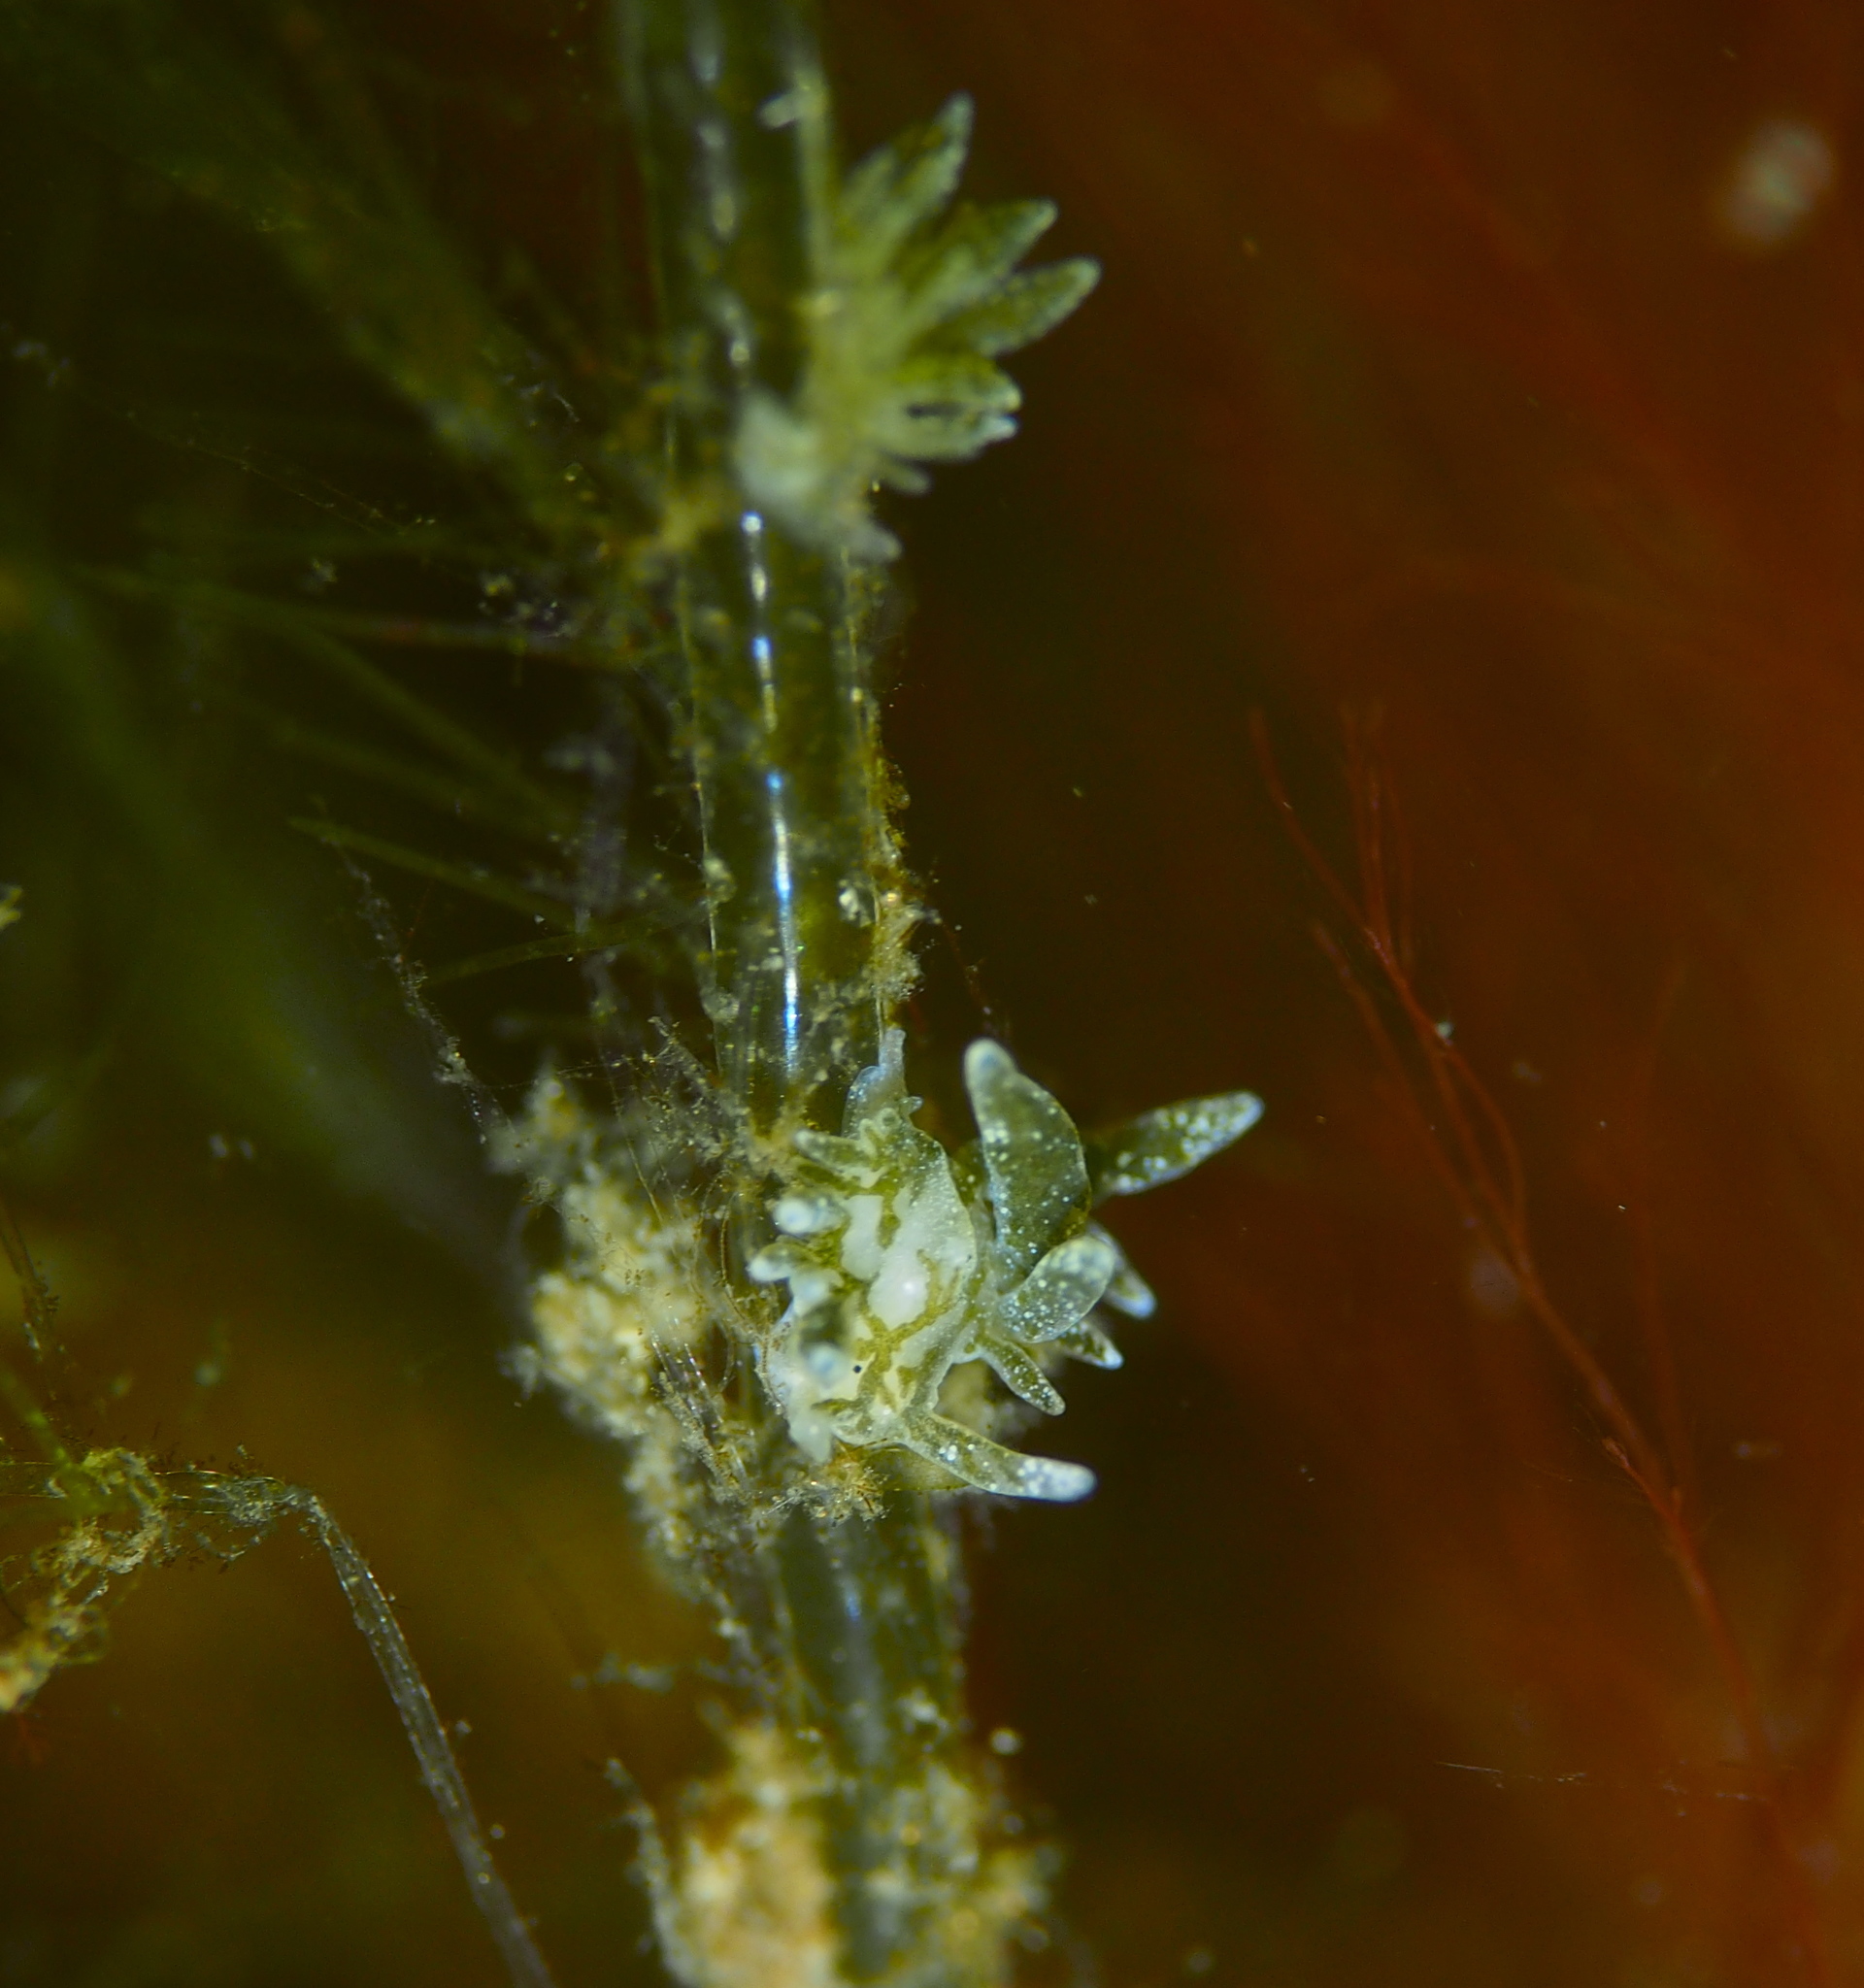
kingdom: Animalia
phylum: Mollusca
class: Gastropoda
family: Limapontiidae
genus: Placida
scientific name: Placida dendritica
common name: Dendritic nudibranch
